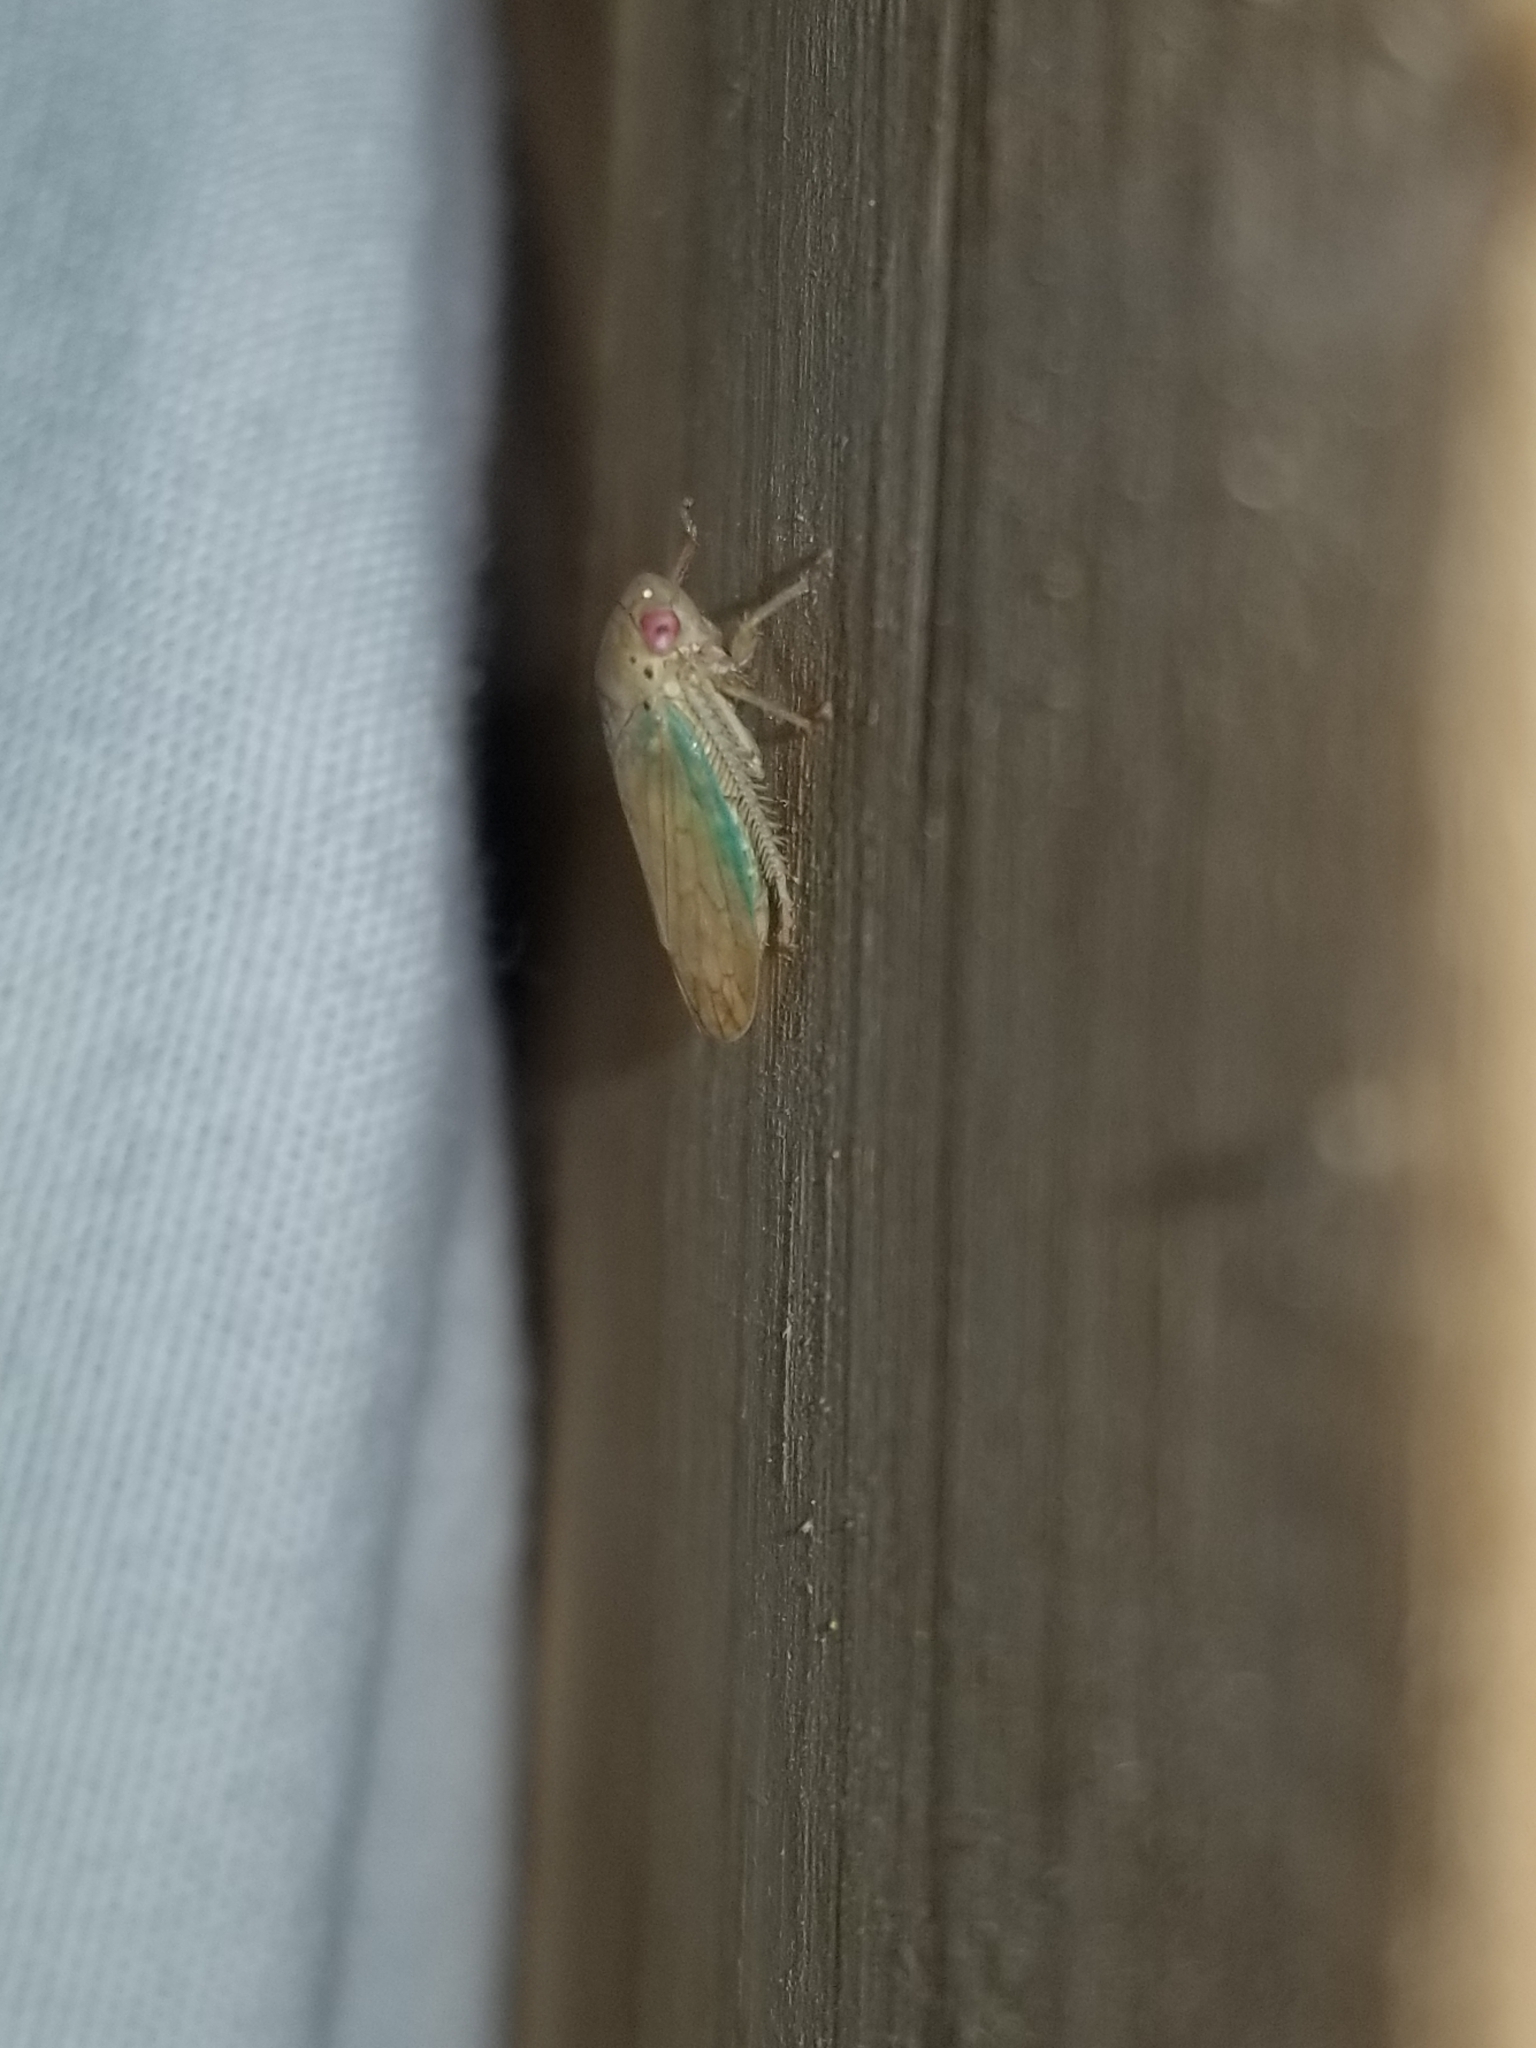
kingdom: Animalia
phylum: Arthropoda
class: Insecta
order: Hemiptera
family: Cicadellidae
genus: Polana
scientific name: Polana quadrinotata
